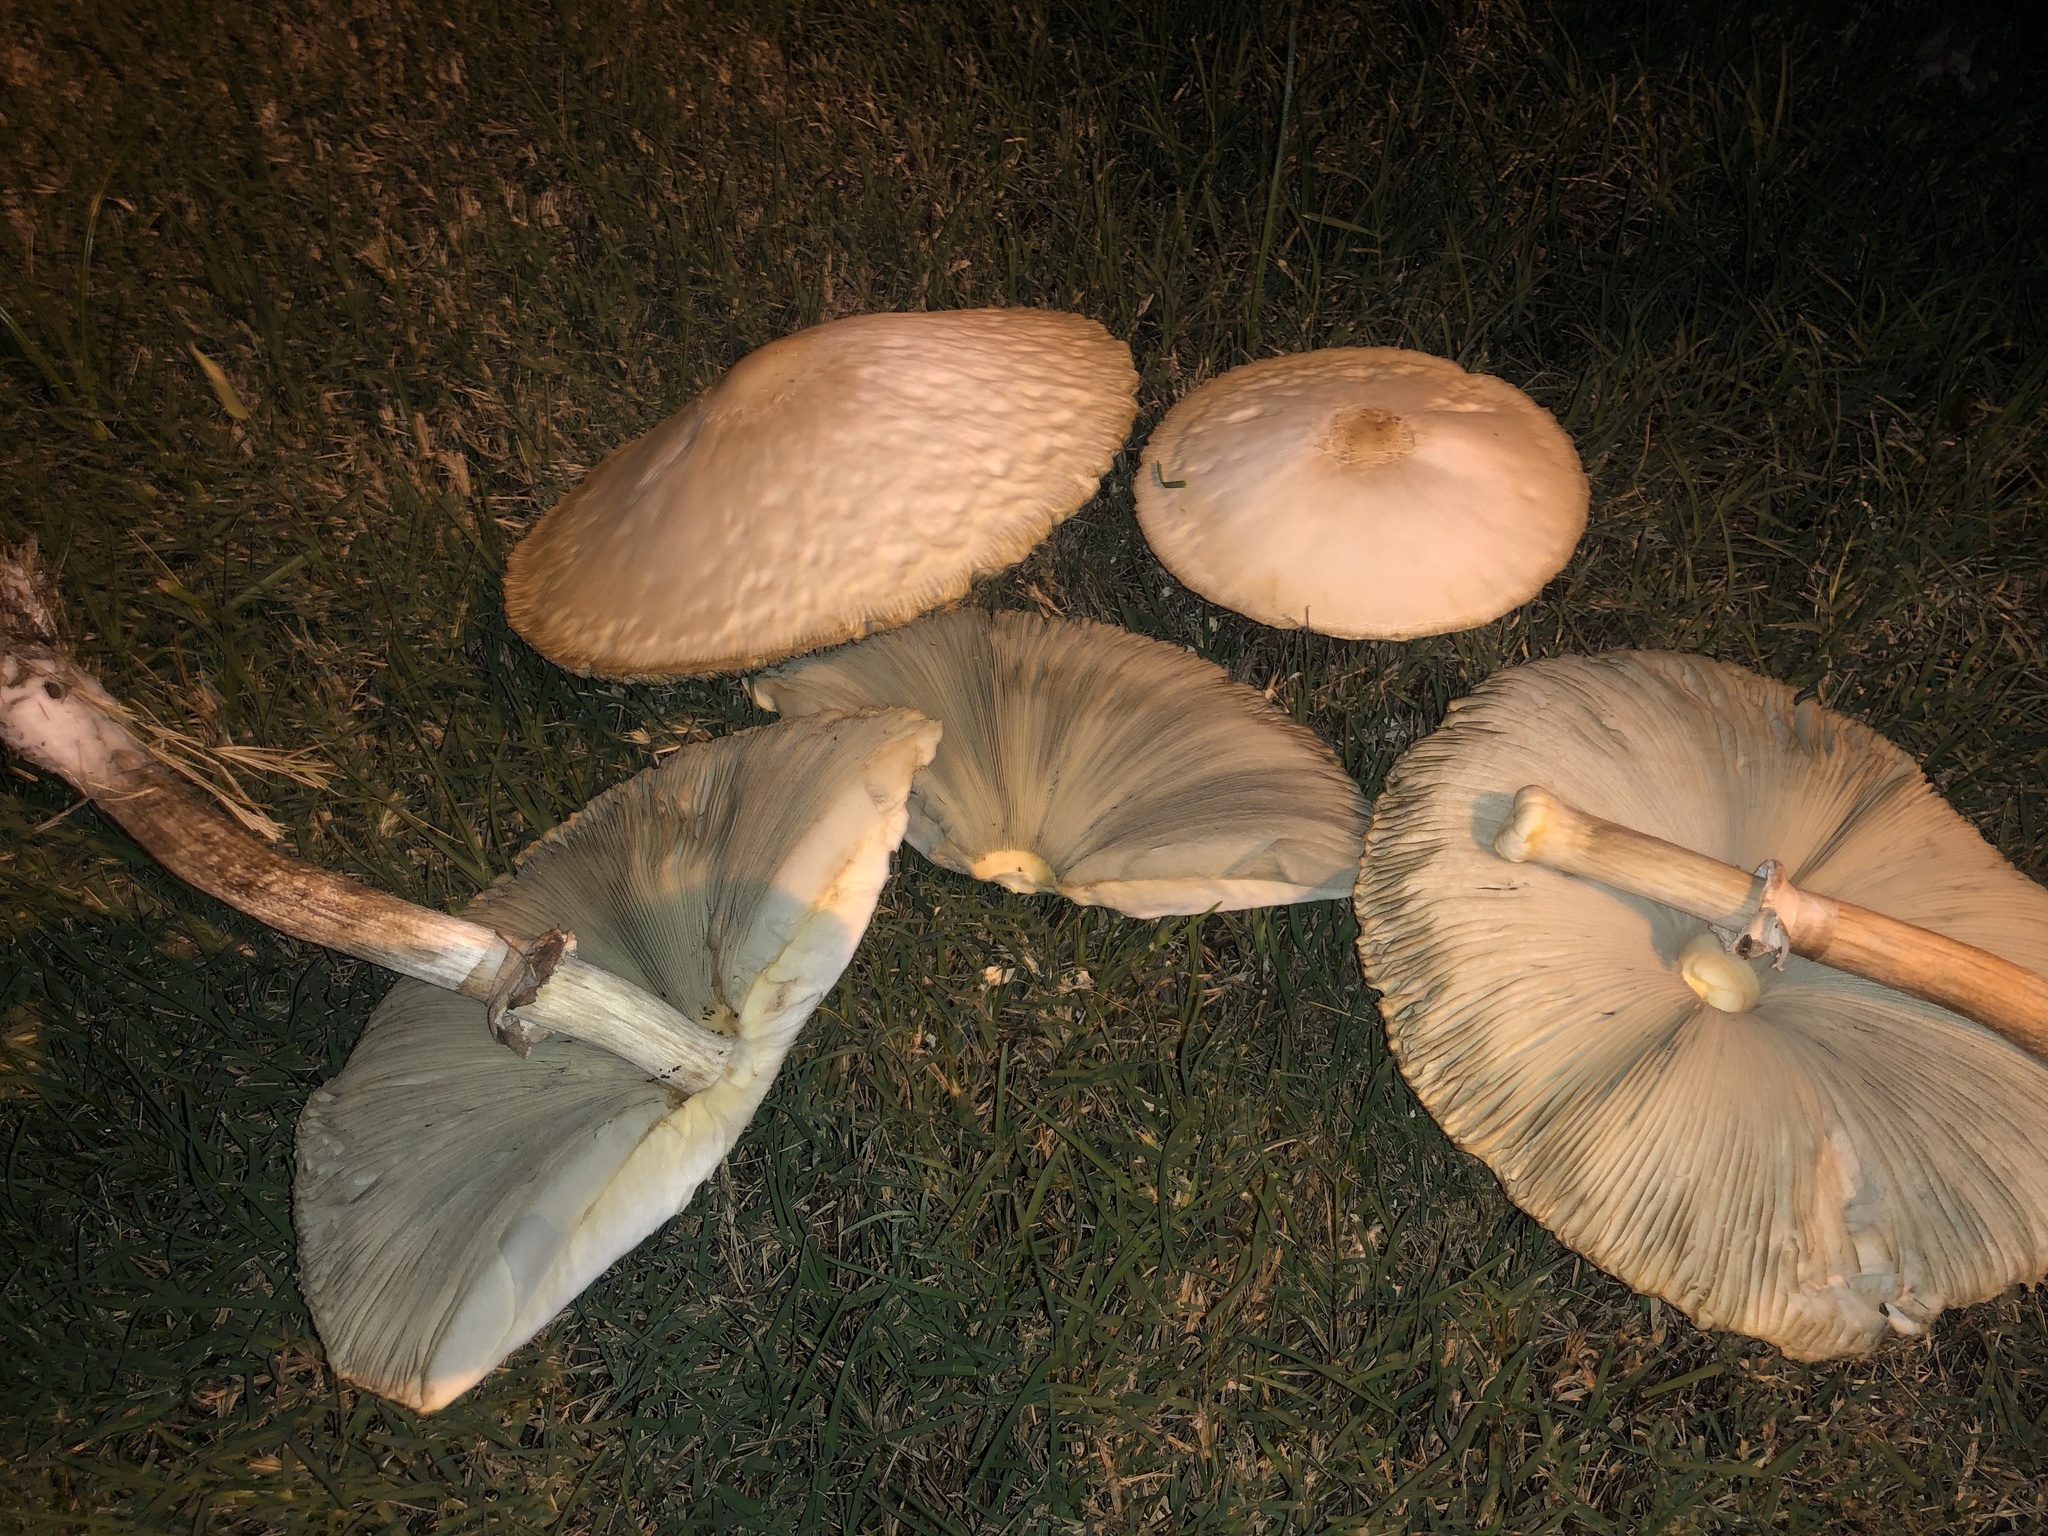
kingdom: Fungi
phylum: Basidiomycota
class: Agaricomycetes
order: Agaricales
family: Agaricaceae
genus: Chlorophyllum
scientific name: Chlorophyllum molybdites
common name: False parasol
